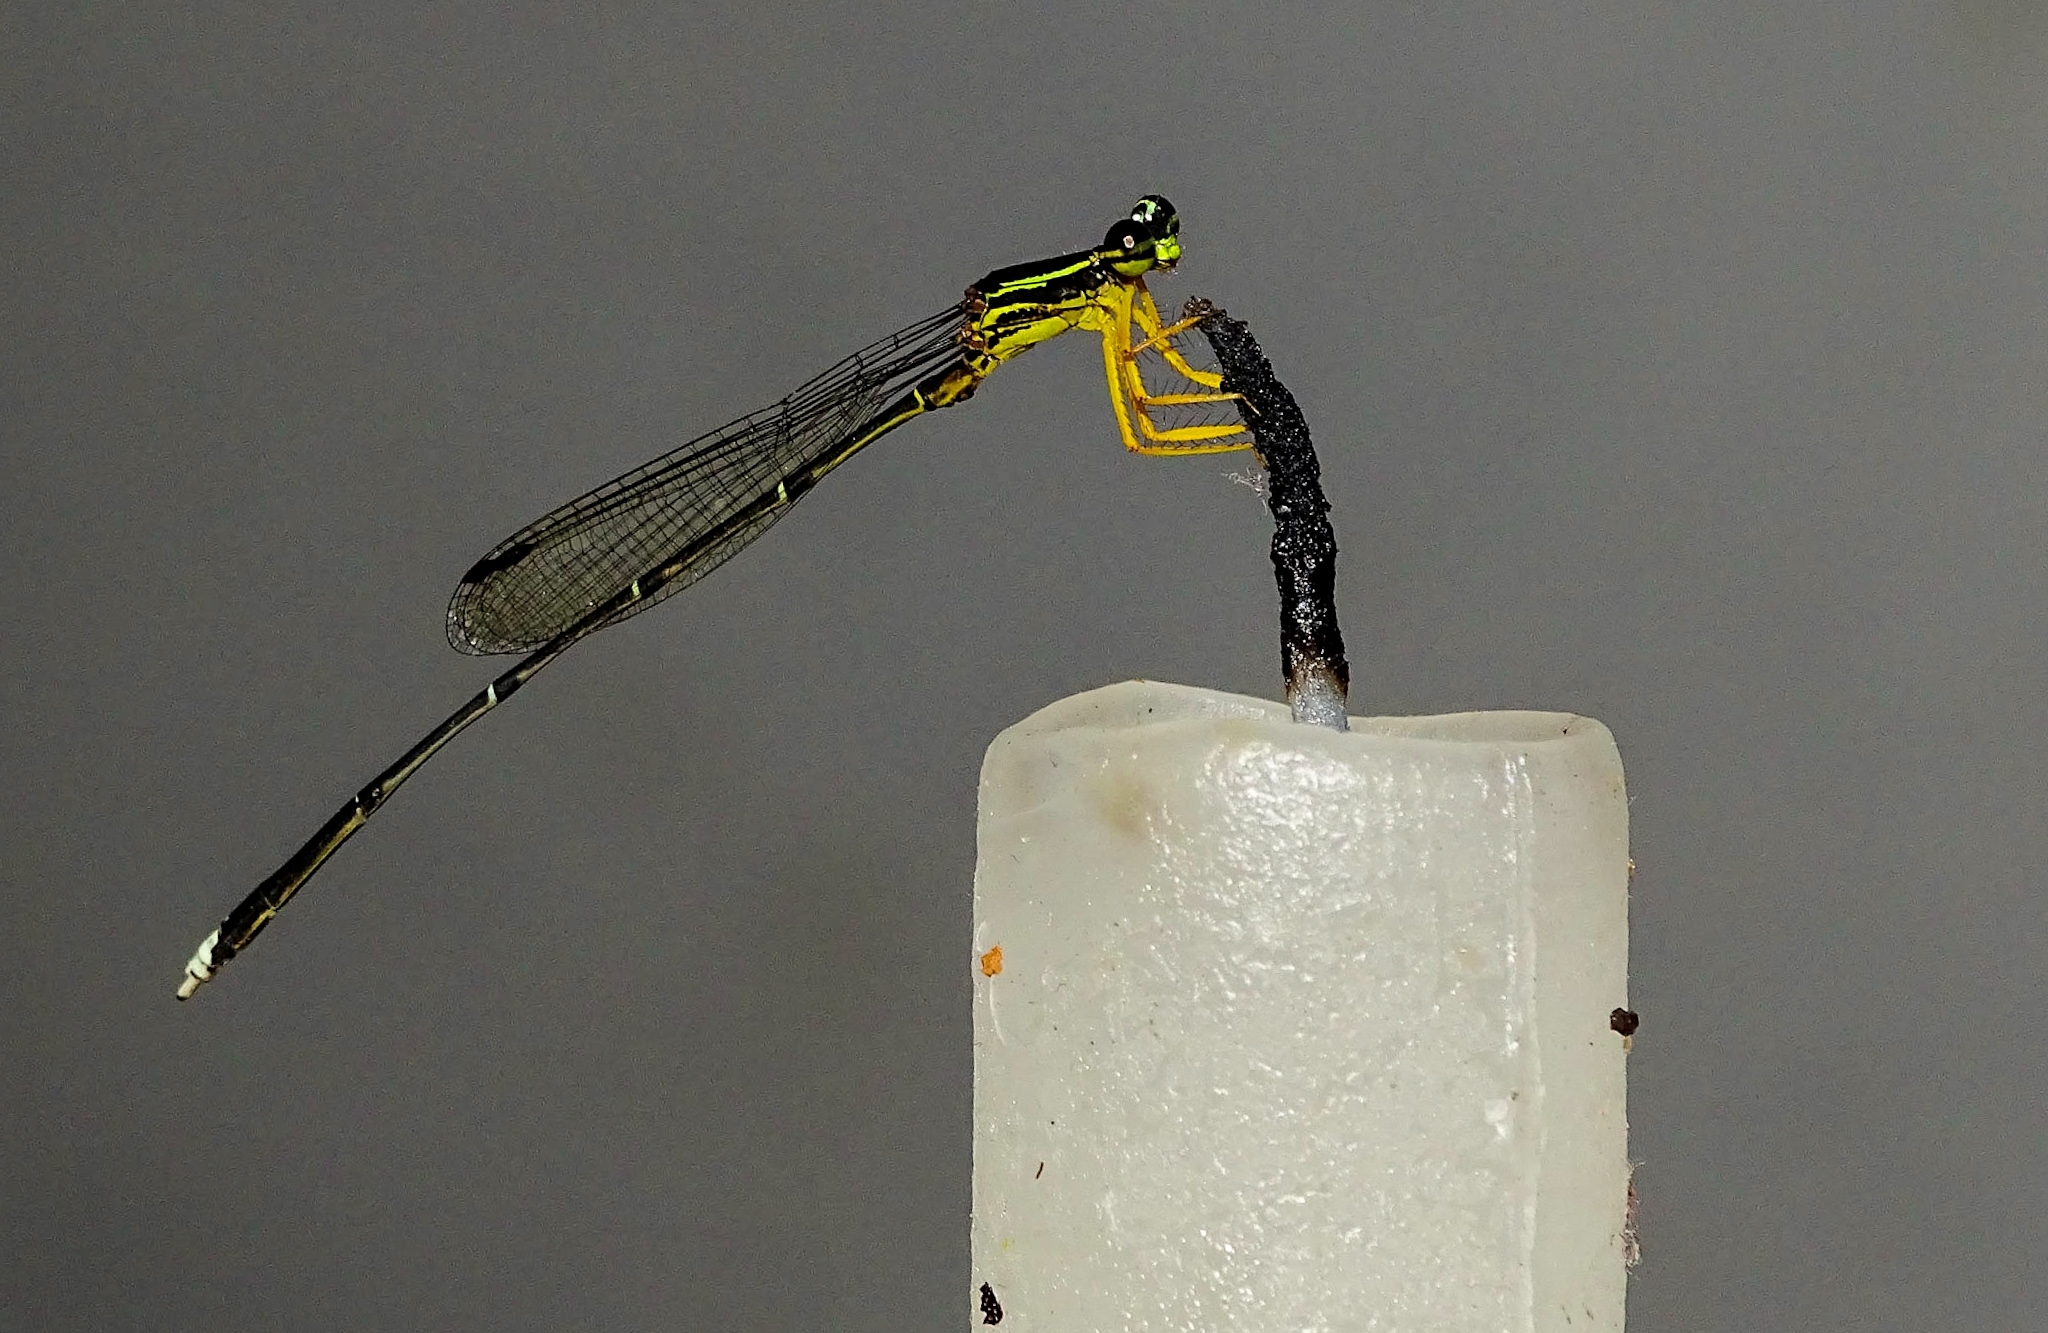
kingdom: Animalia
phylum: Arthropoda
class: Insecta
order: Odonata
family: Platycnemididae
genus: Copera
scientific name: Copera marginipes
